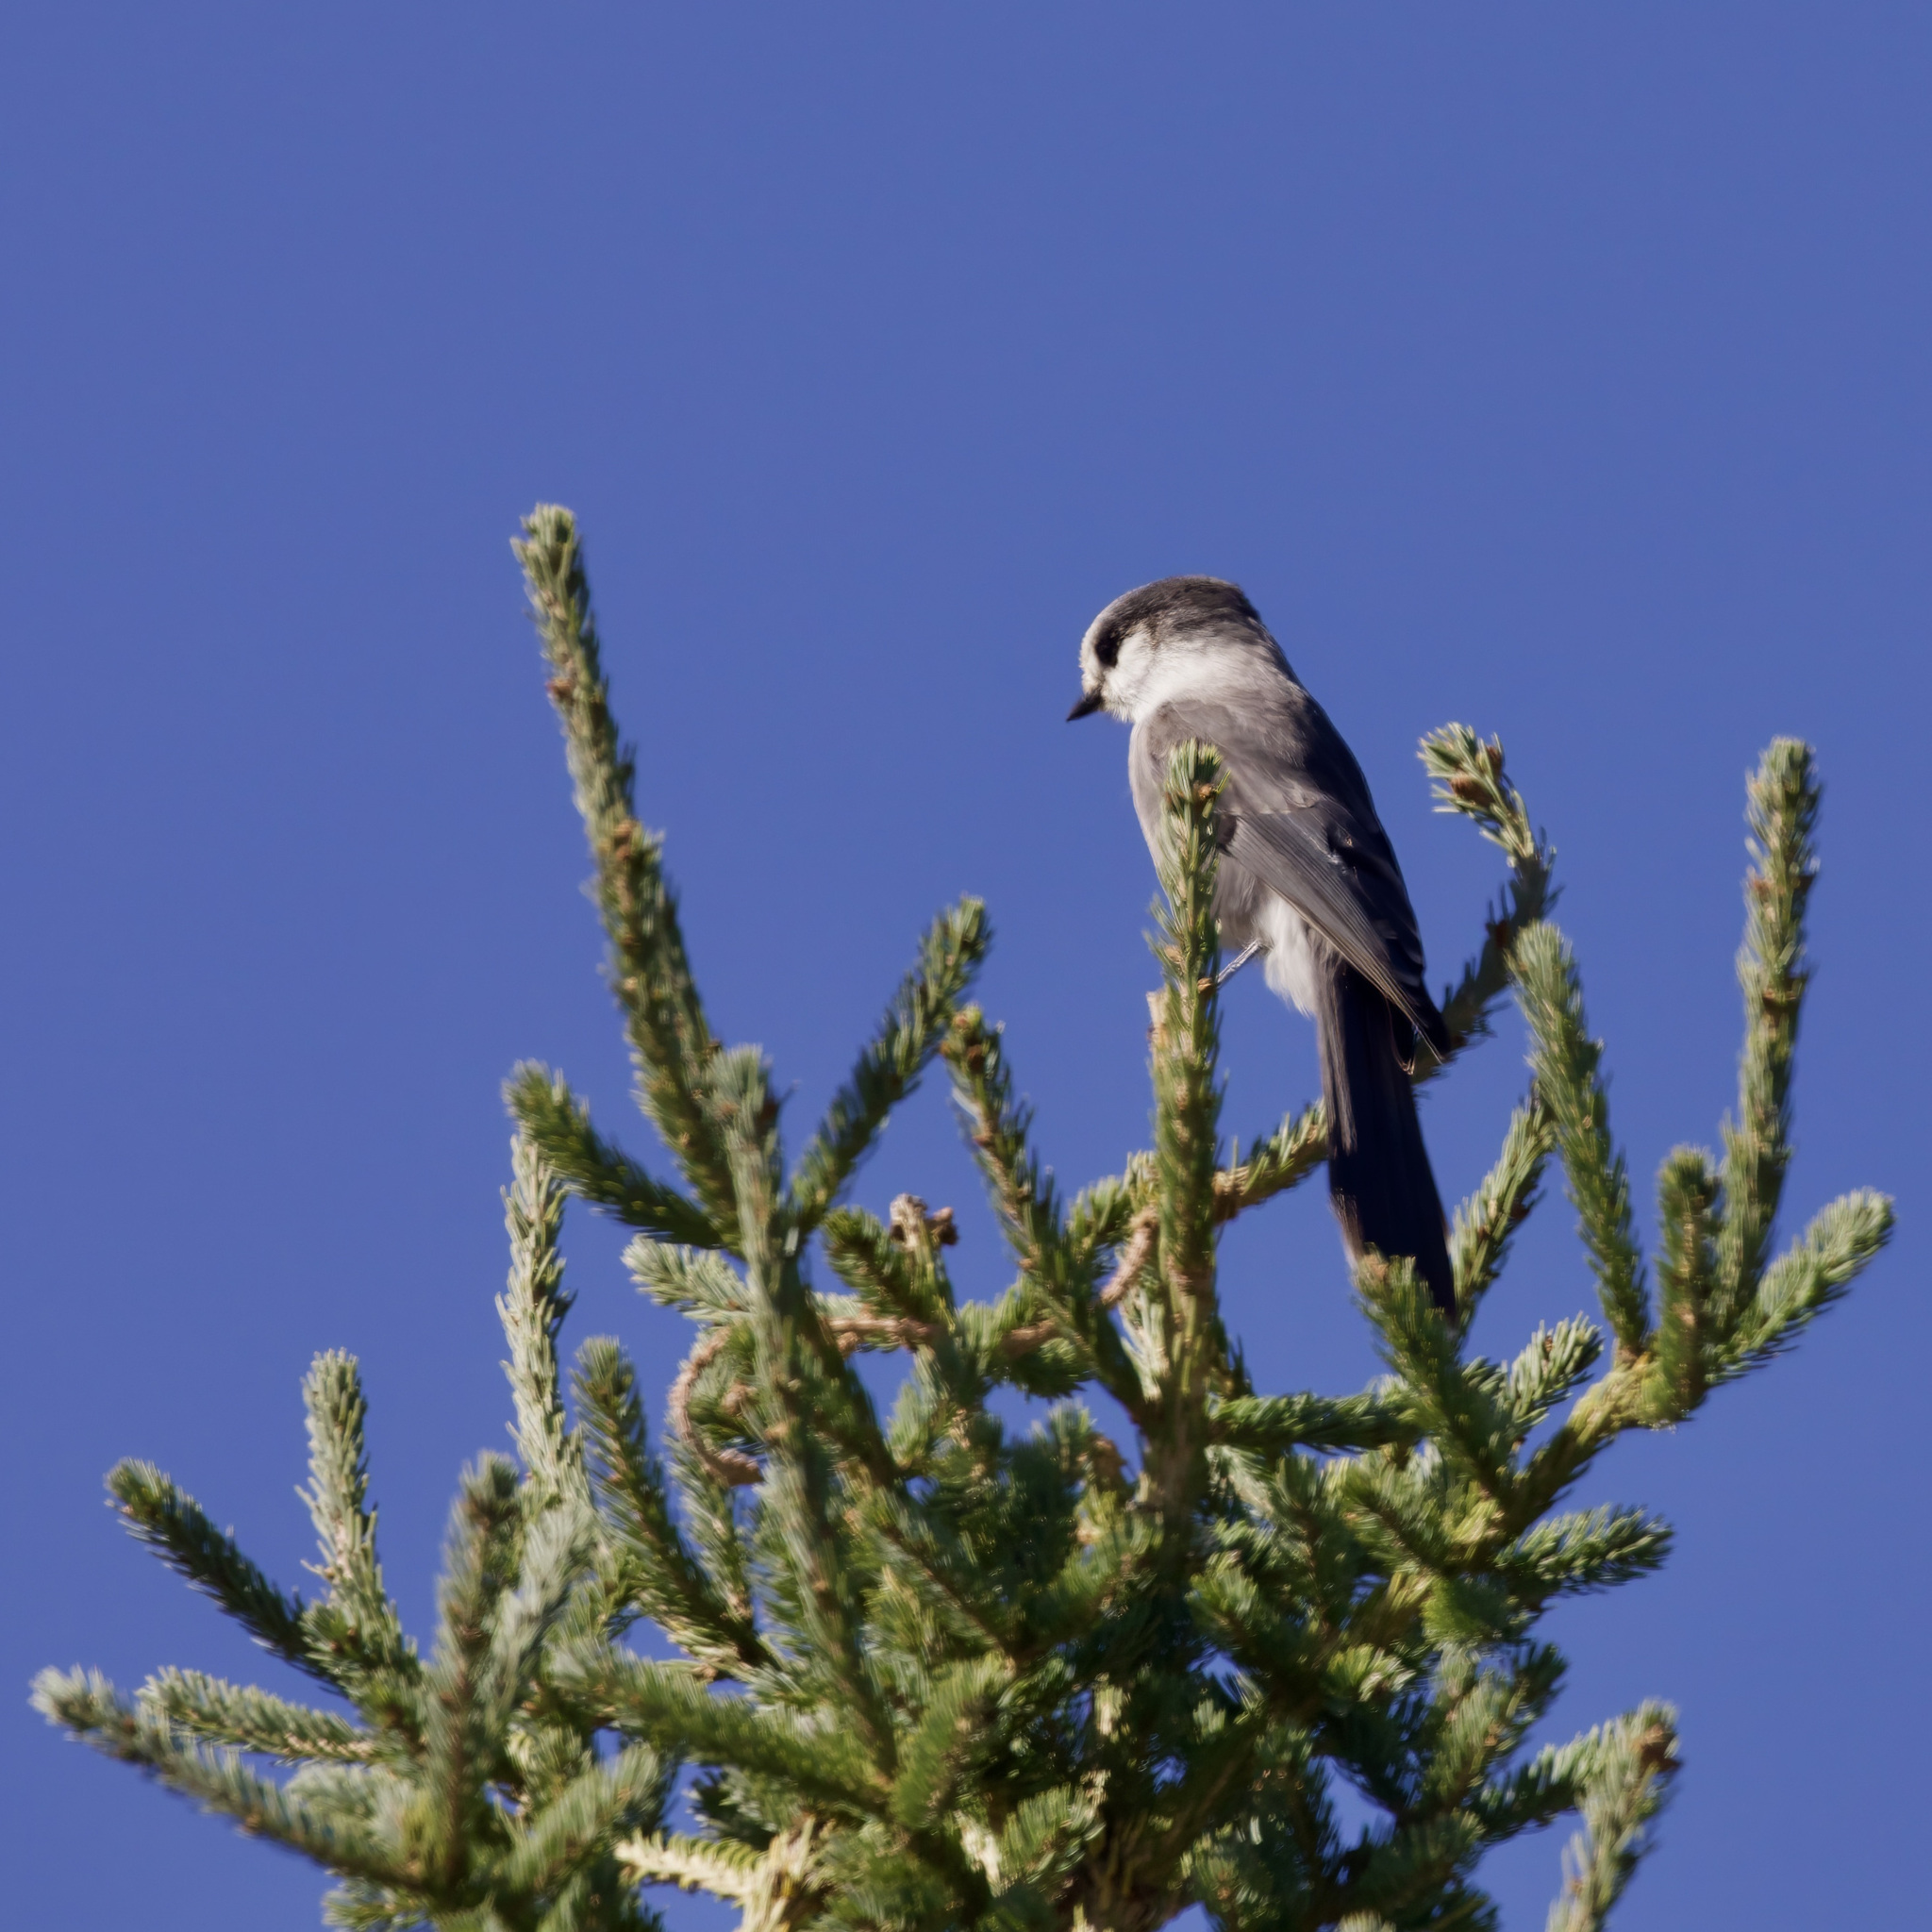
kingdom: Animalia
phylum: Chordata
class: Aves
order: Passeriformes
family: Corvidae
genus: Perisoreus
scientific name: Perisoreus canadensis
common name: Gray jay
